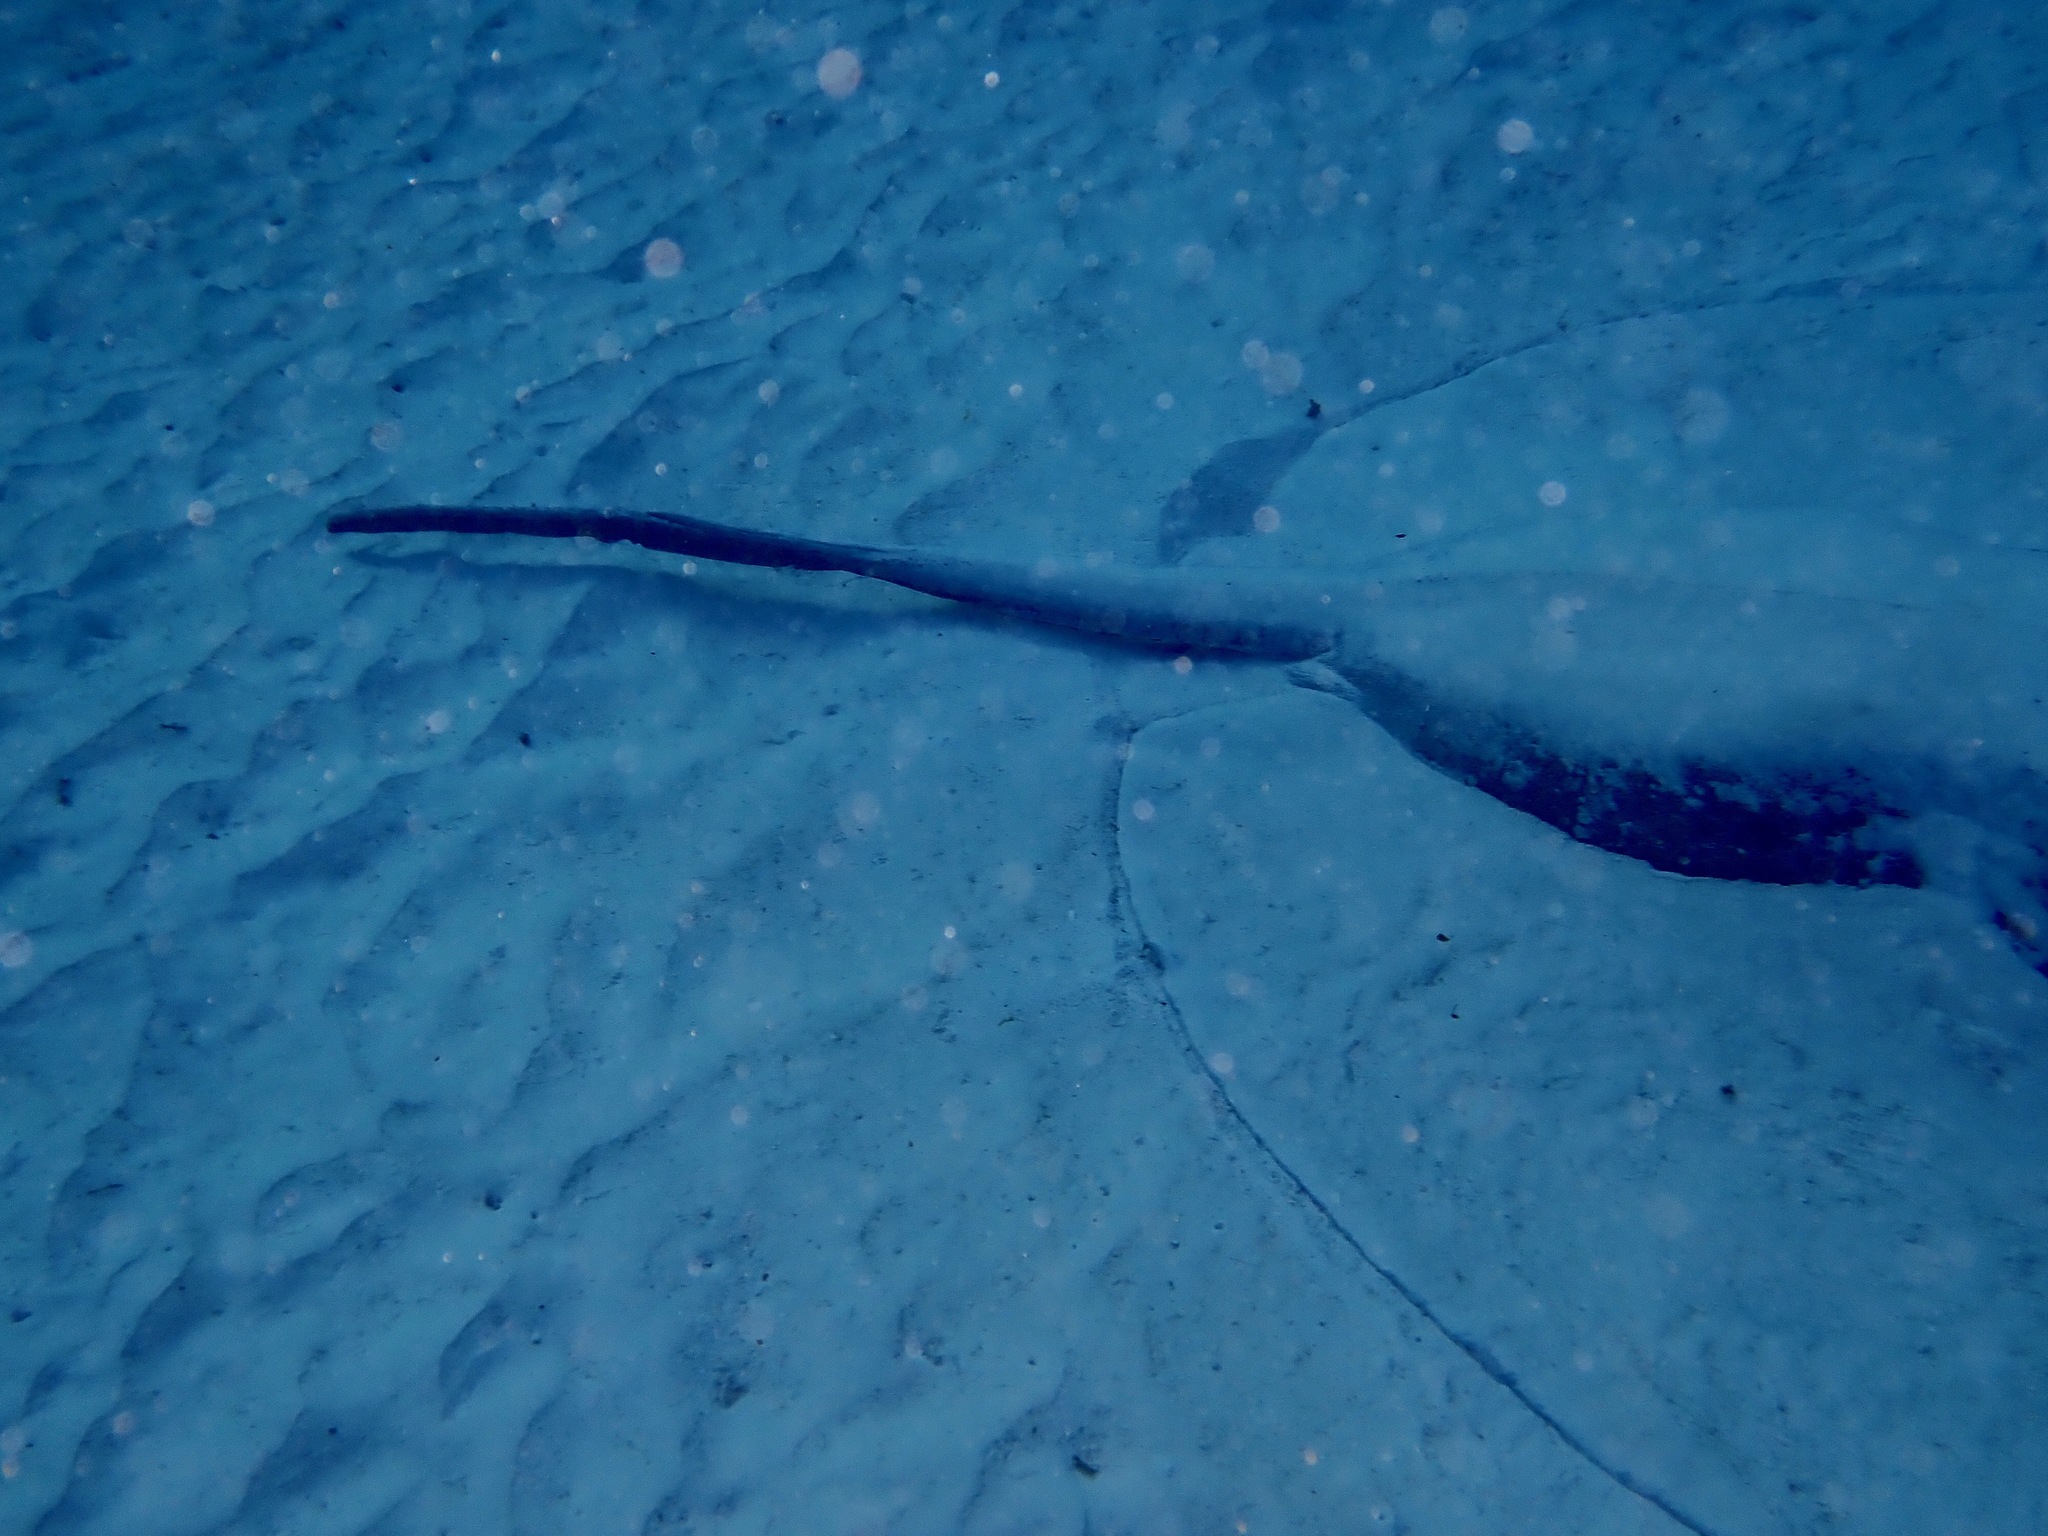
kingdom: Animalia
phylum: Chordata
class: Elasmobranchii
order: Myliobatiformes
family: Dasyatidae
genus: Taeniurops
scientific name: Taeniurops meyeni
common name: Black-blotched stingray
